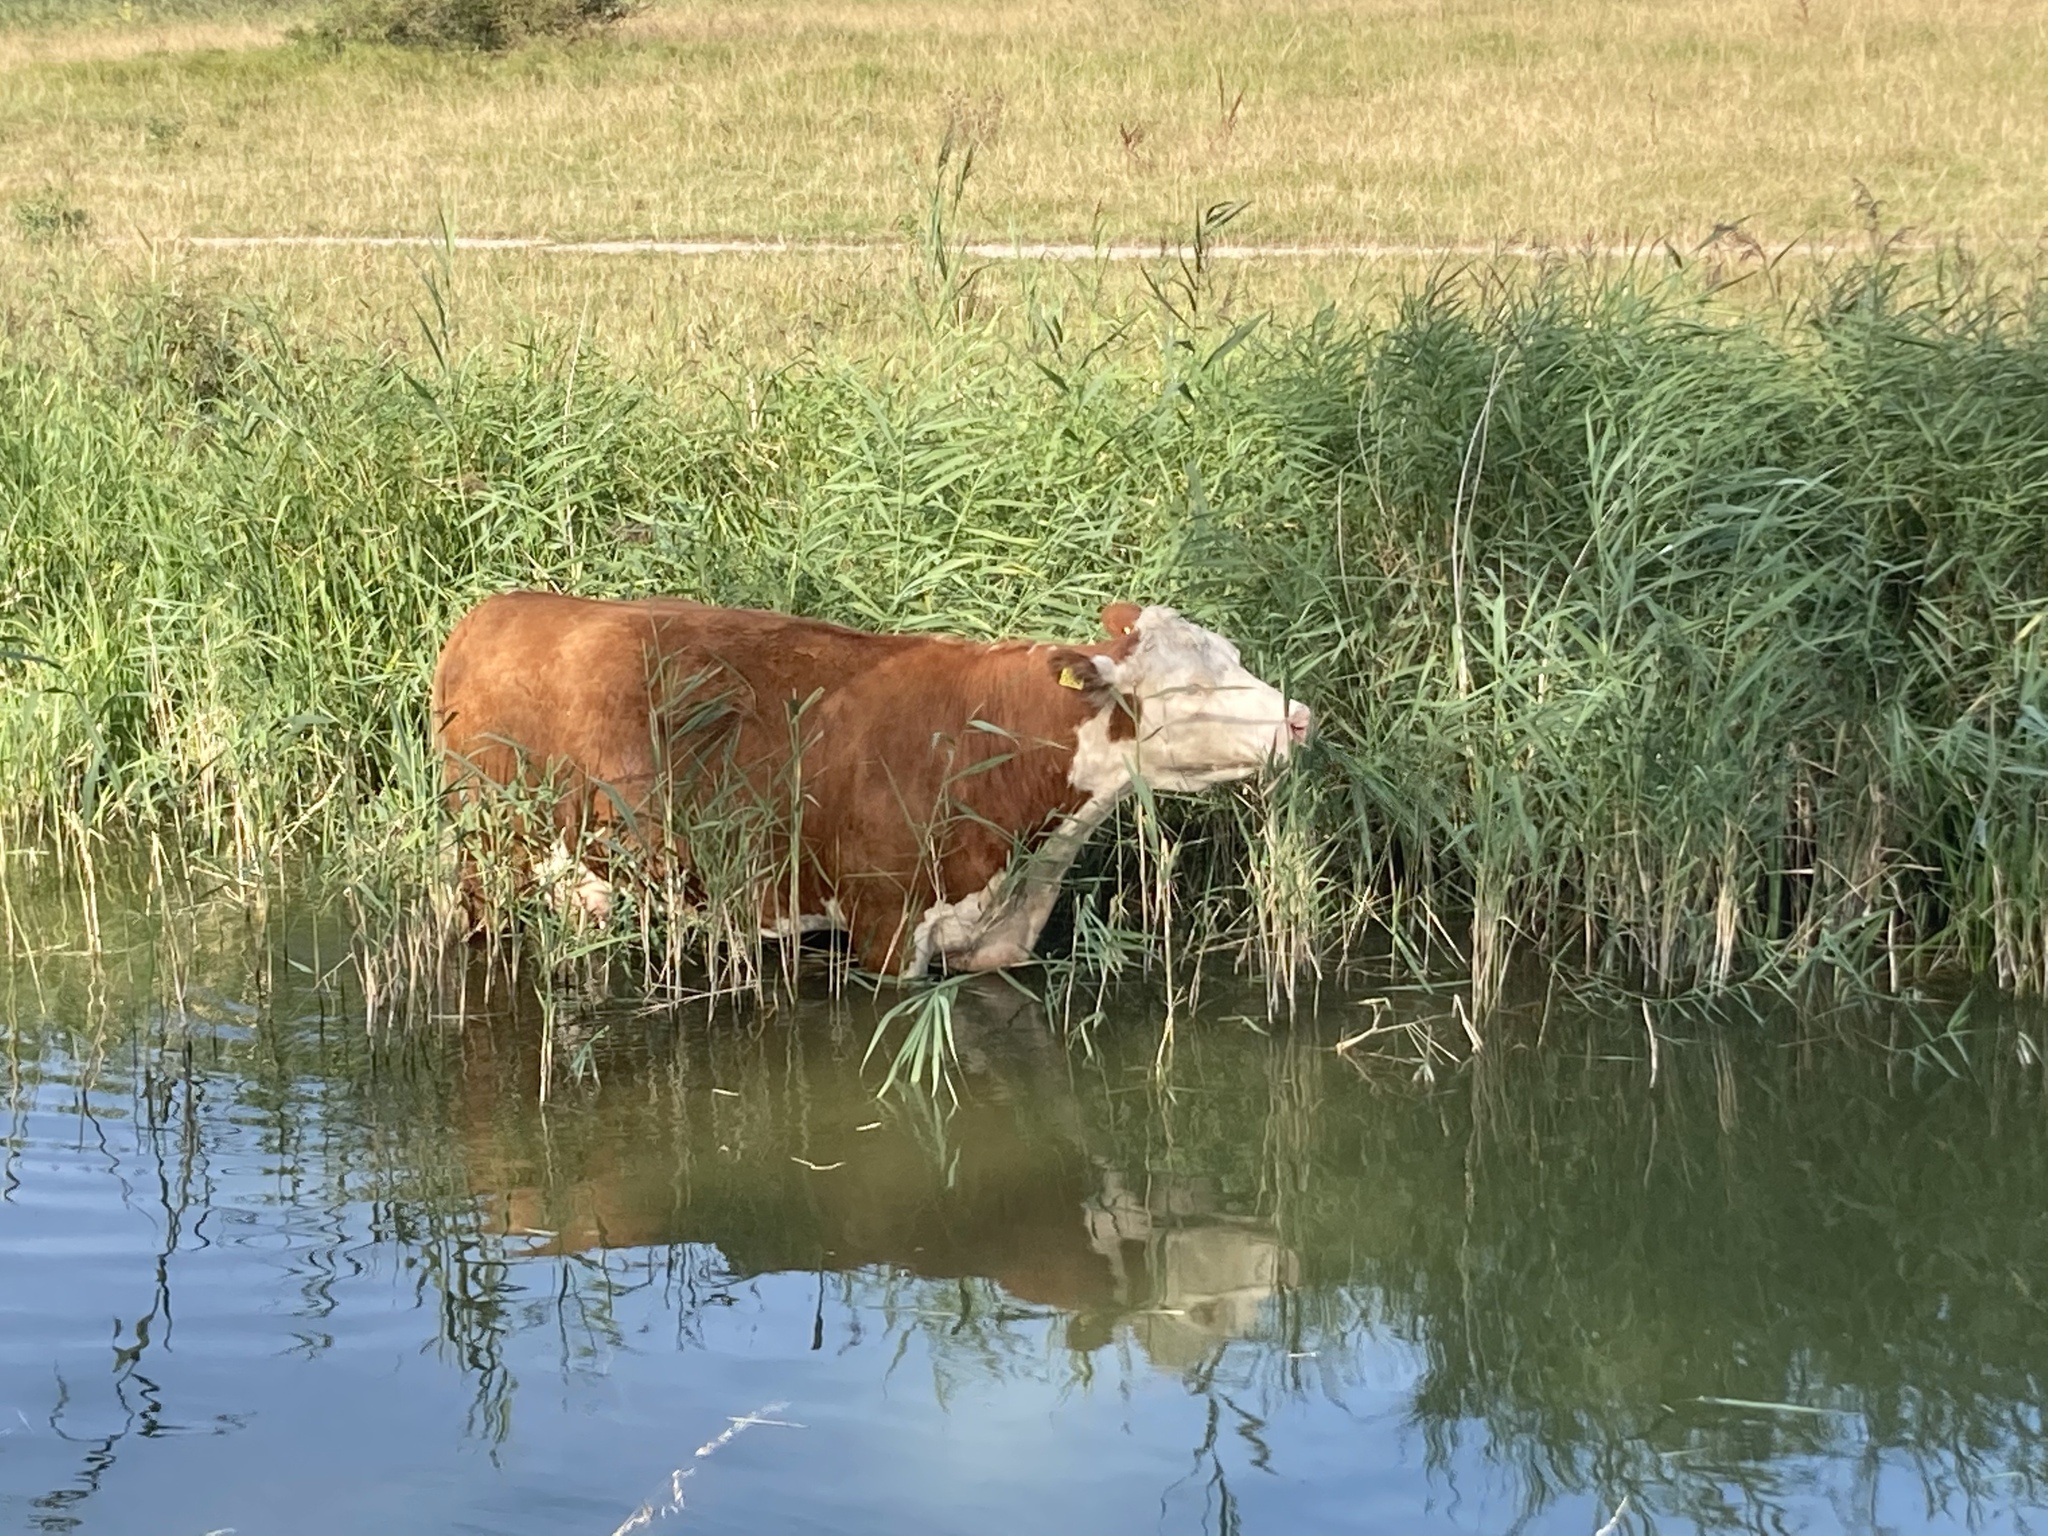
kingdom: Plantae
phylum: Tracheophyta
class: Liliopsida
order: Poales
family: Poaceae
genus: Phragmites
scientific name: Phragmites australis
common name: Common reed
